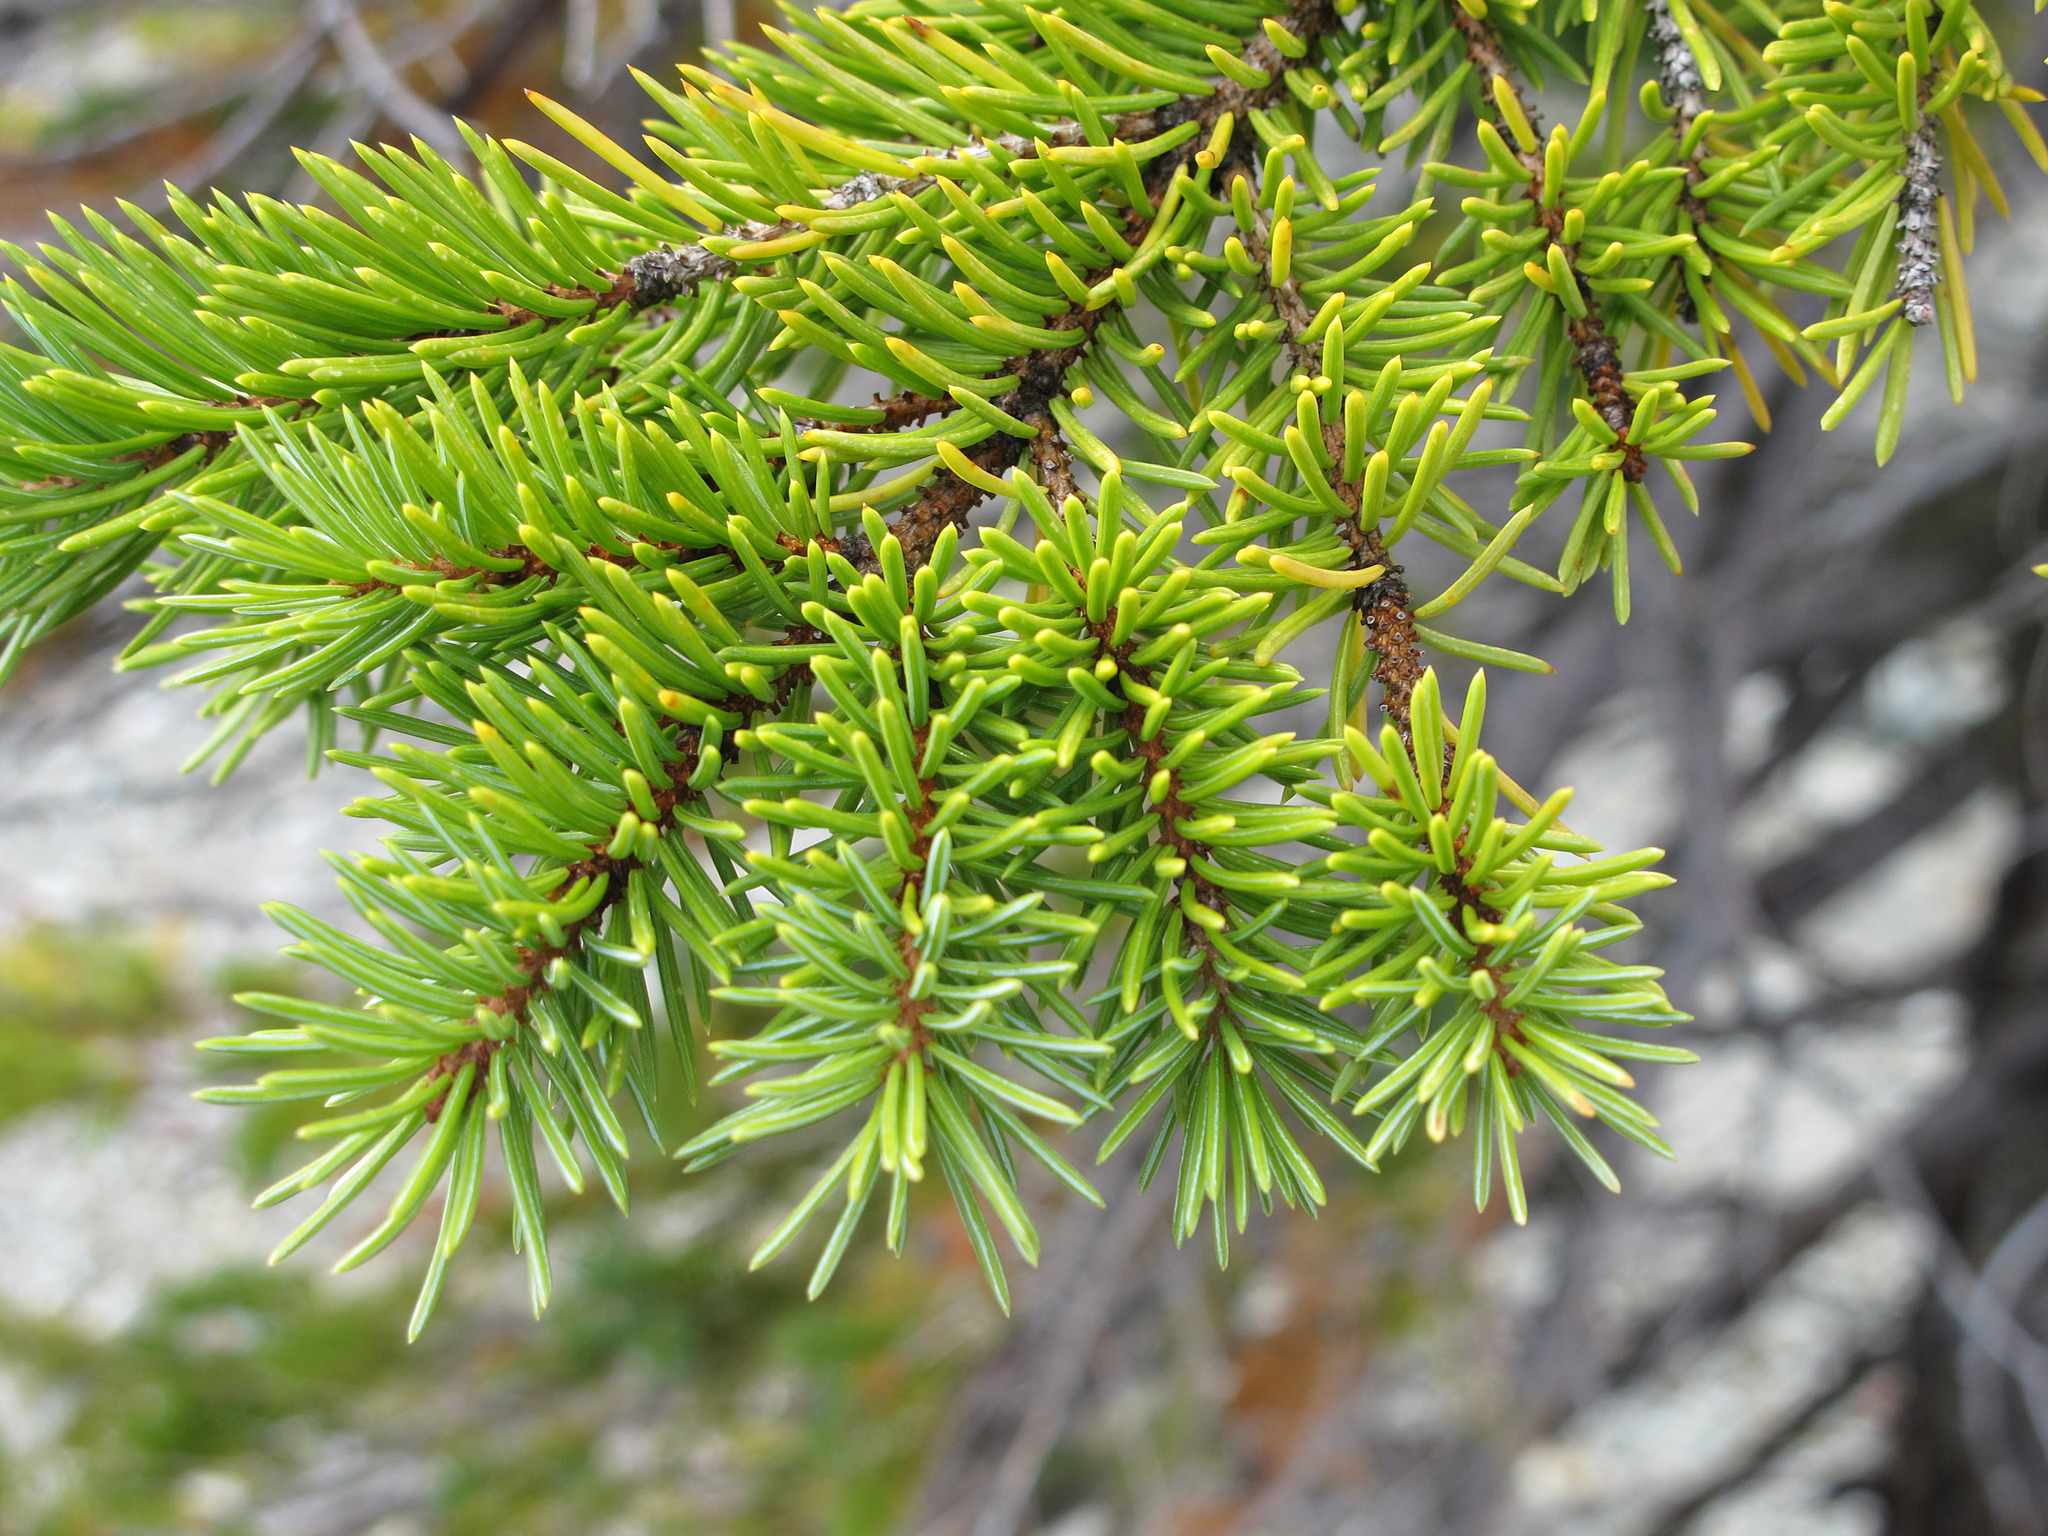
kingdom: Plantae
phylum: Tracheophyta
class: Pinopsida
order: Pinales
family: Pinaceae
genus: Picea
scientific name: Picea engelmannii
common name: Engelmann spruce
